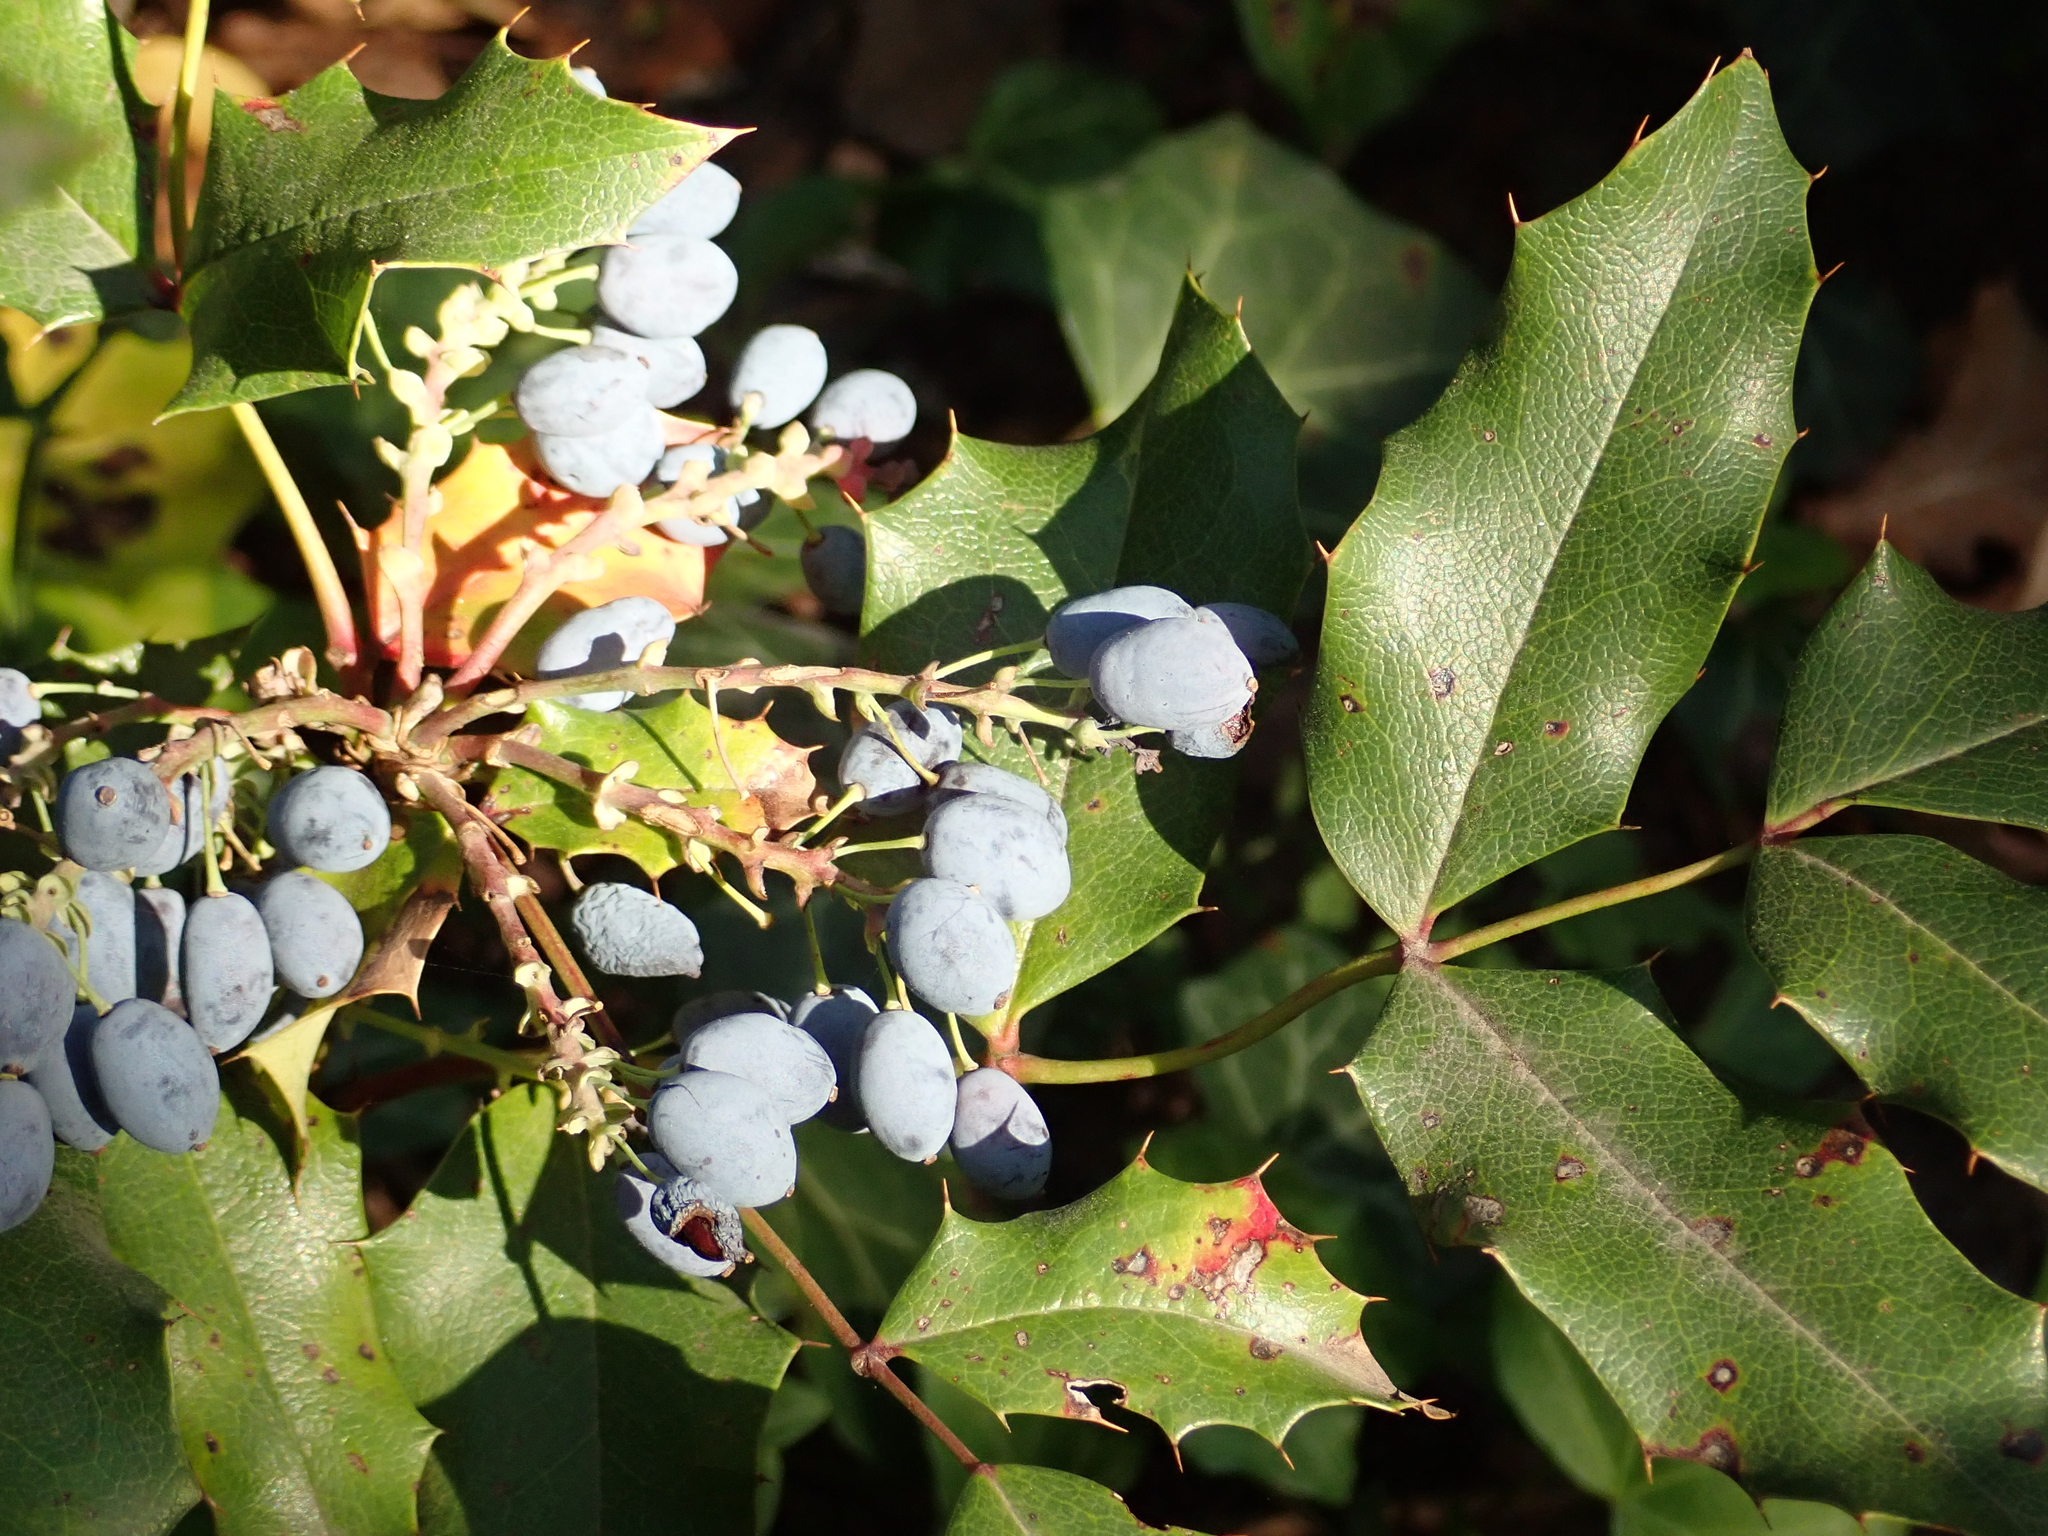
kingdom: Plantae
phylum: Tracheophyta
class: Magnoliopsida
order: Ranunculales
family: Berberidaceae
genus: Mahonia
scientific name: Mahonia aquifolium
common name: Oregon-grape
